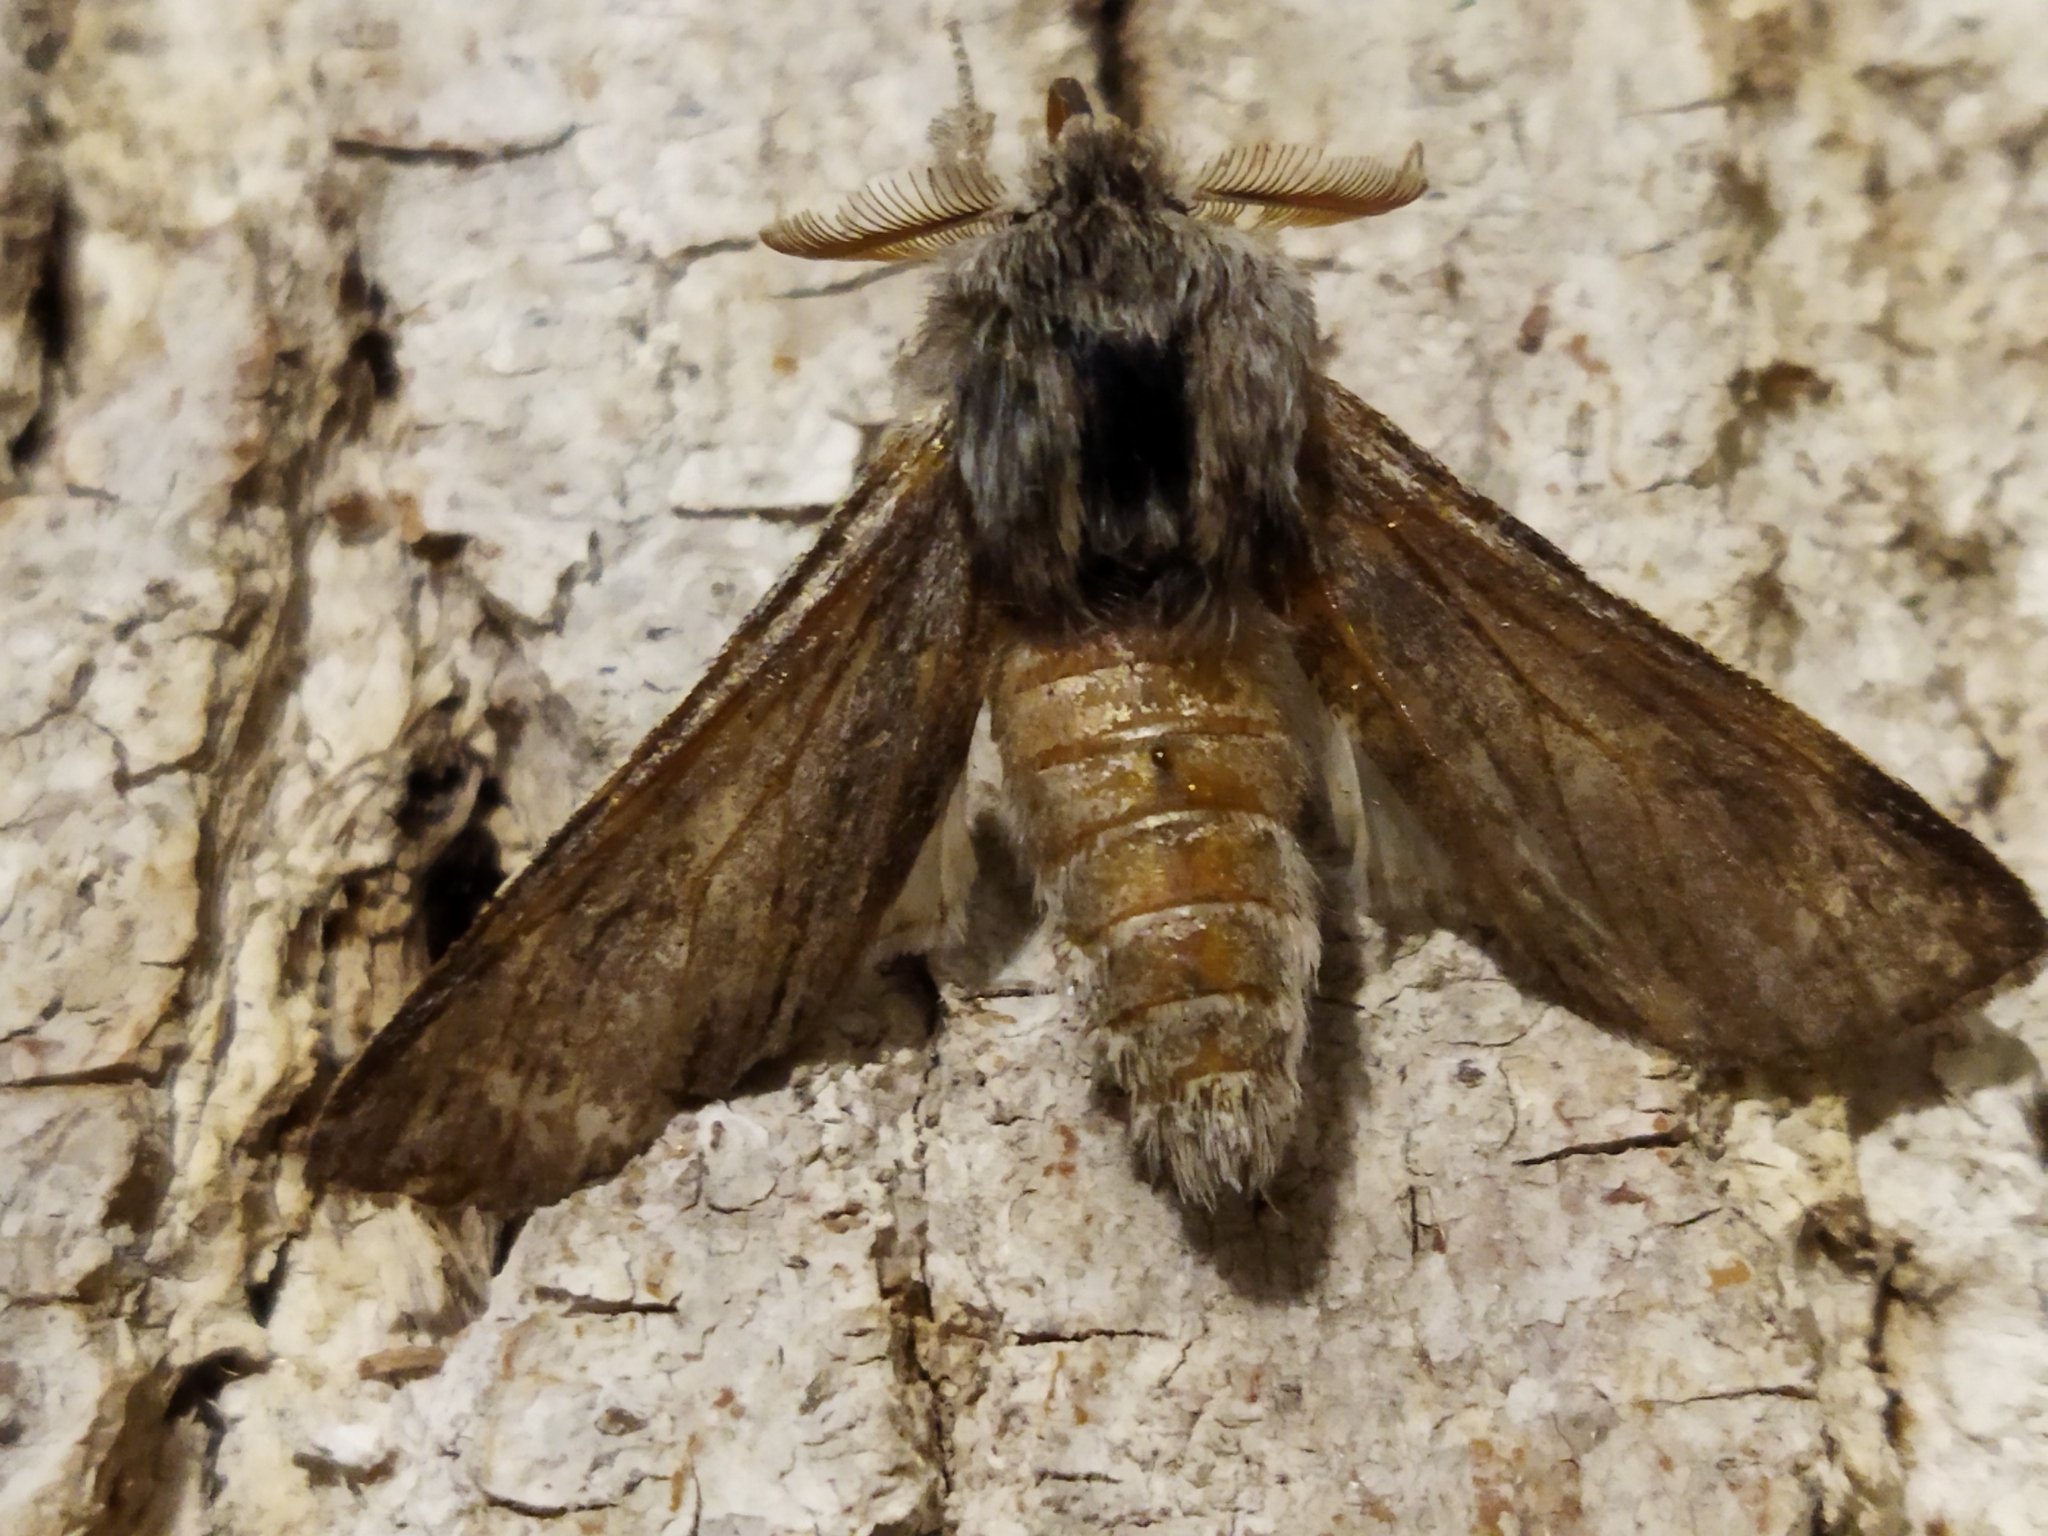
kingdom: Animalia
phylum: Arthropoda
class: Insecta
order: Lepidoptera
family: Notodontidae
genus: Dicranura
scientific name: Dicranura ulmi
